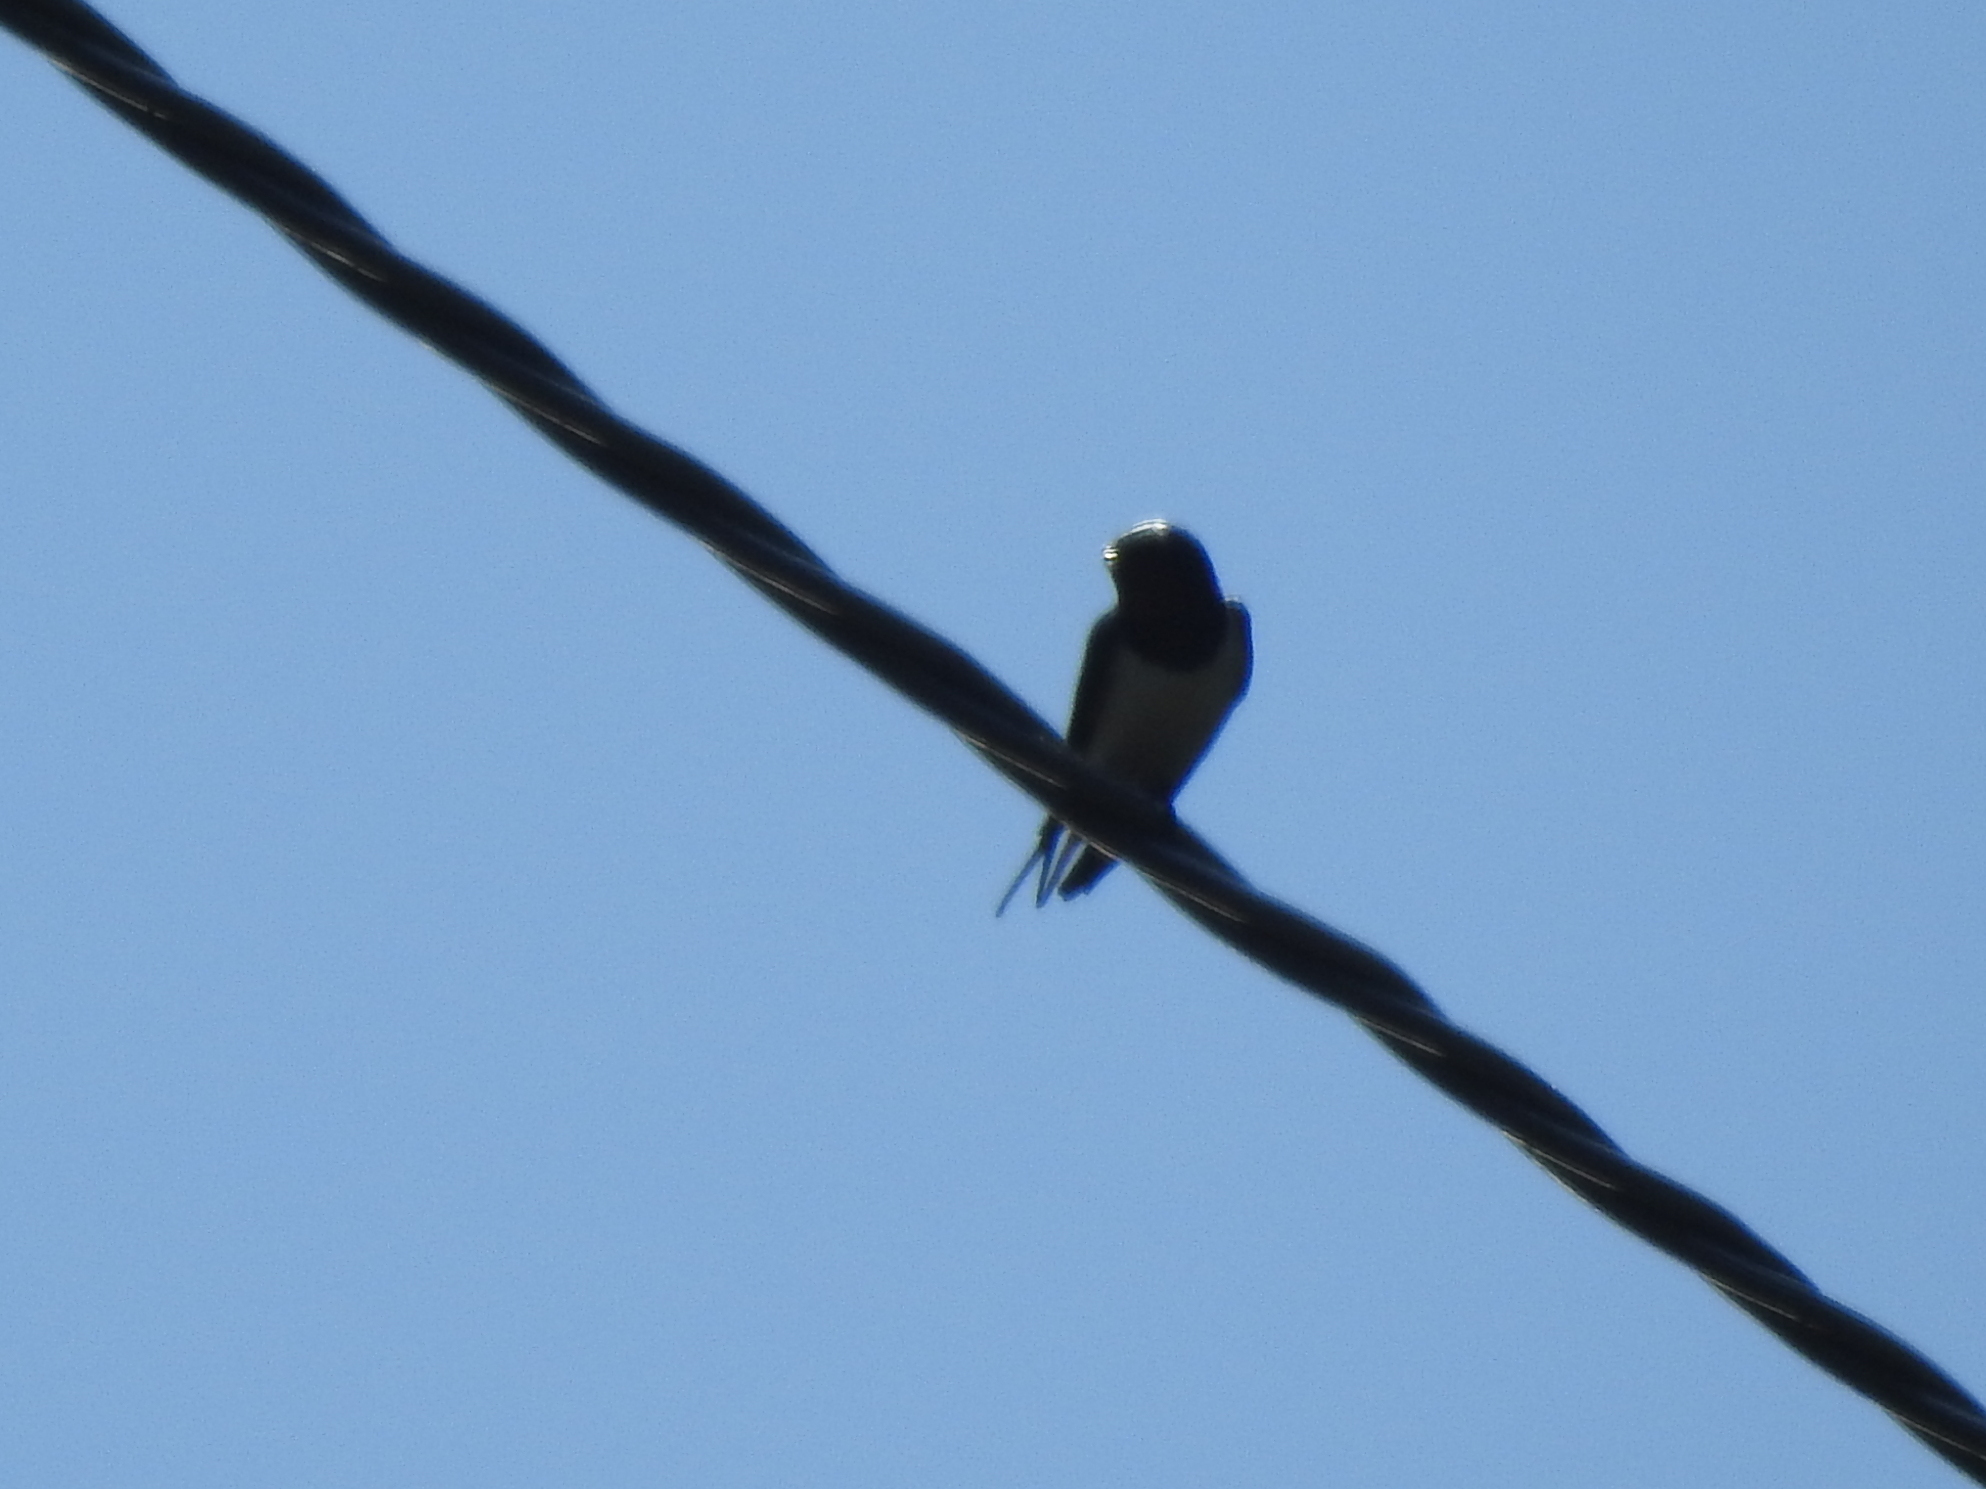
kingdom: Animalia
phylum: Chordata
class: Aves
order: Passeriformes
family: Hirundinidae
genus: Hirundo
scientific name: Hirundo rustica
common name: Barn swallow
